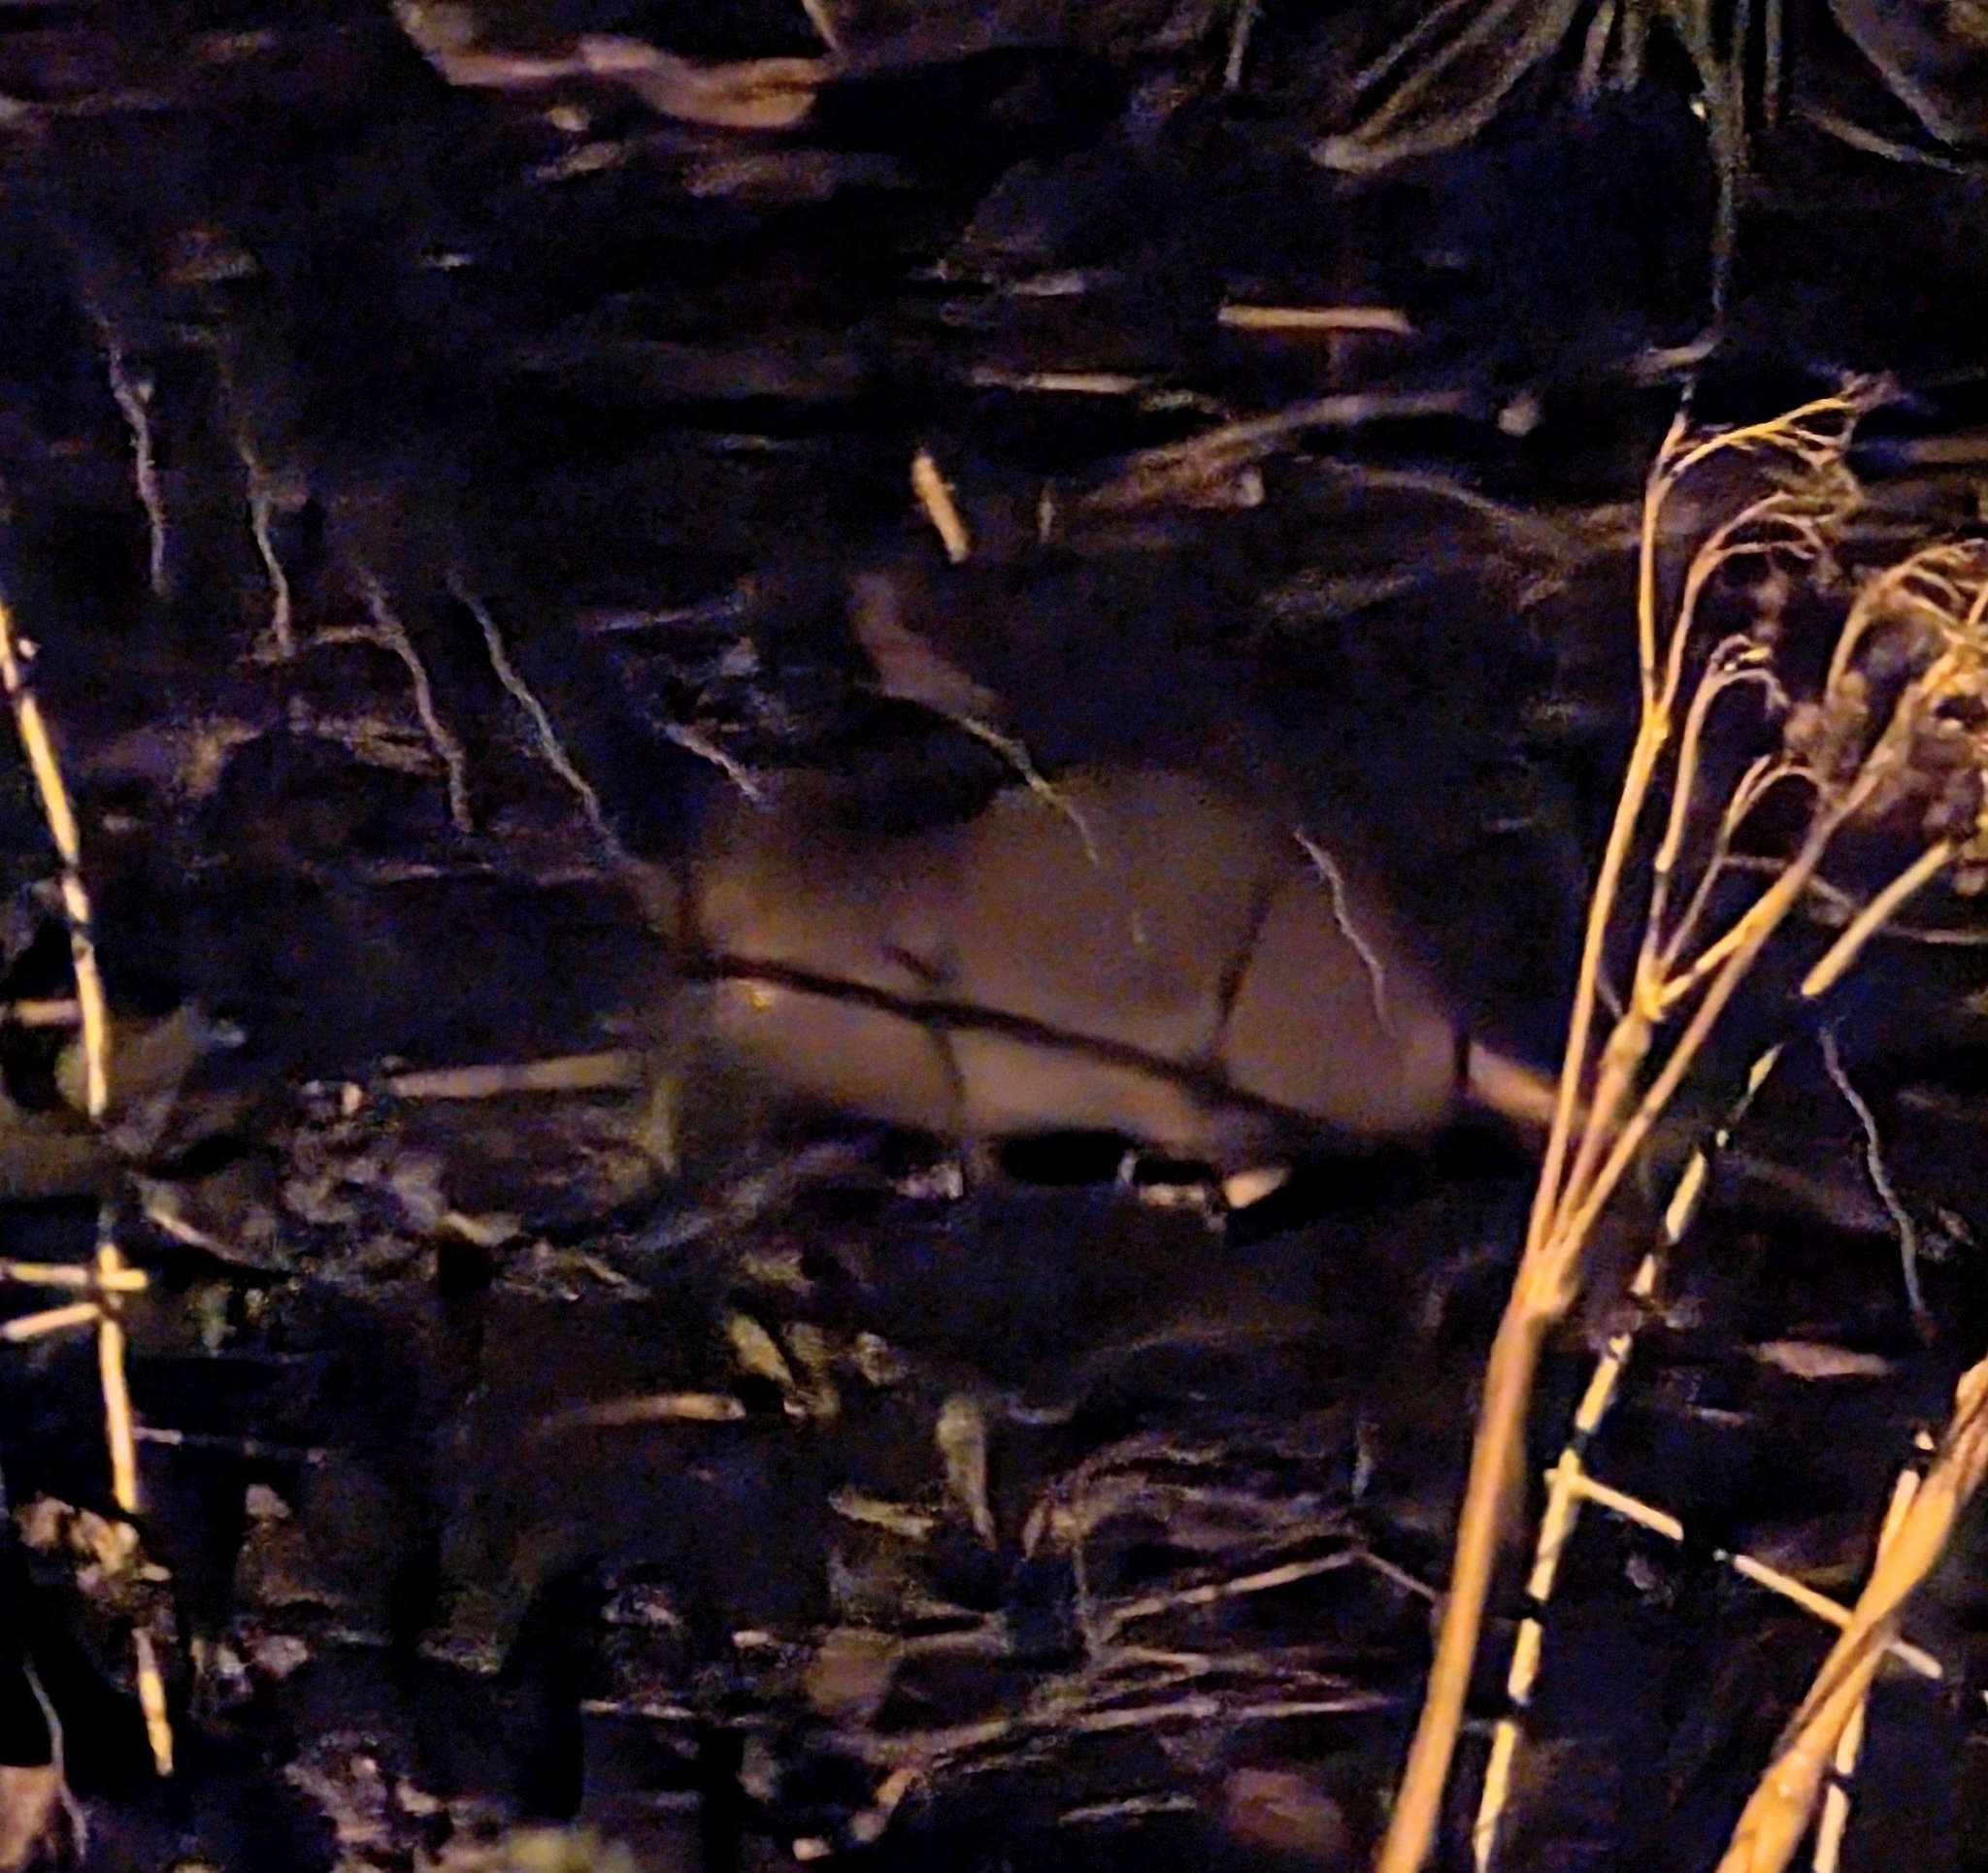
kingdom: Animalia
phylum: Chordata
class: Mammalia
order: Rodentia
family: Muridae
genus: Rattus
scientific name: Rattus norvegicus
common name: Brown rat
